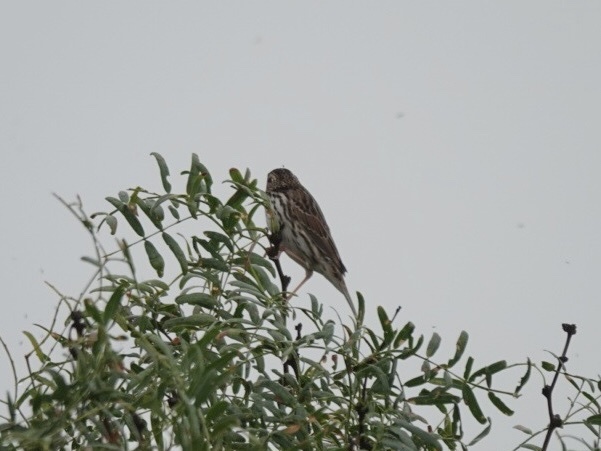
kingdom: Animalia
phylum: Chordata
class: Aves
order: Passeriformes
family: Passerellidae
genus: Passerculus
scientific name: Passerculus sandwichensis
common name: Savannah sparrow
